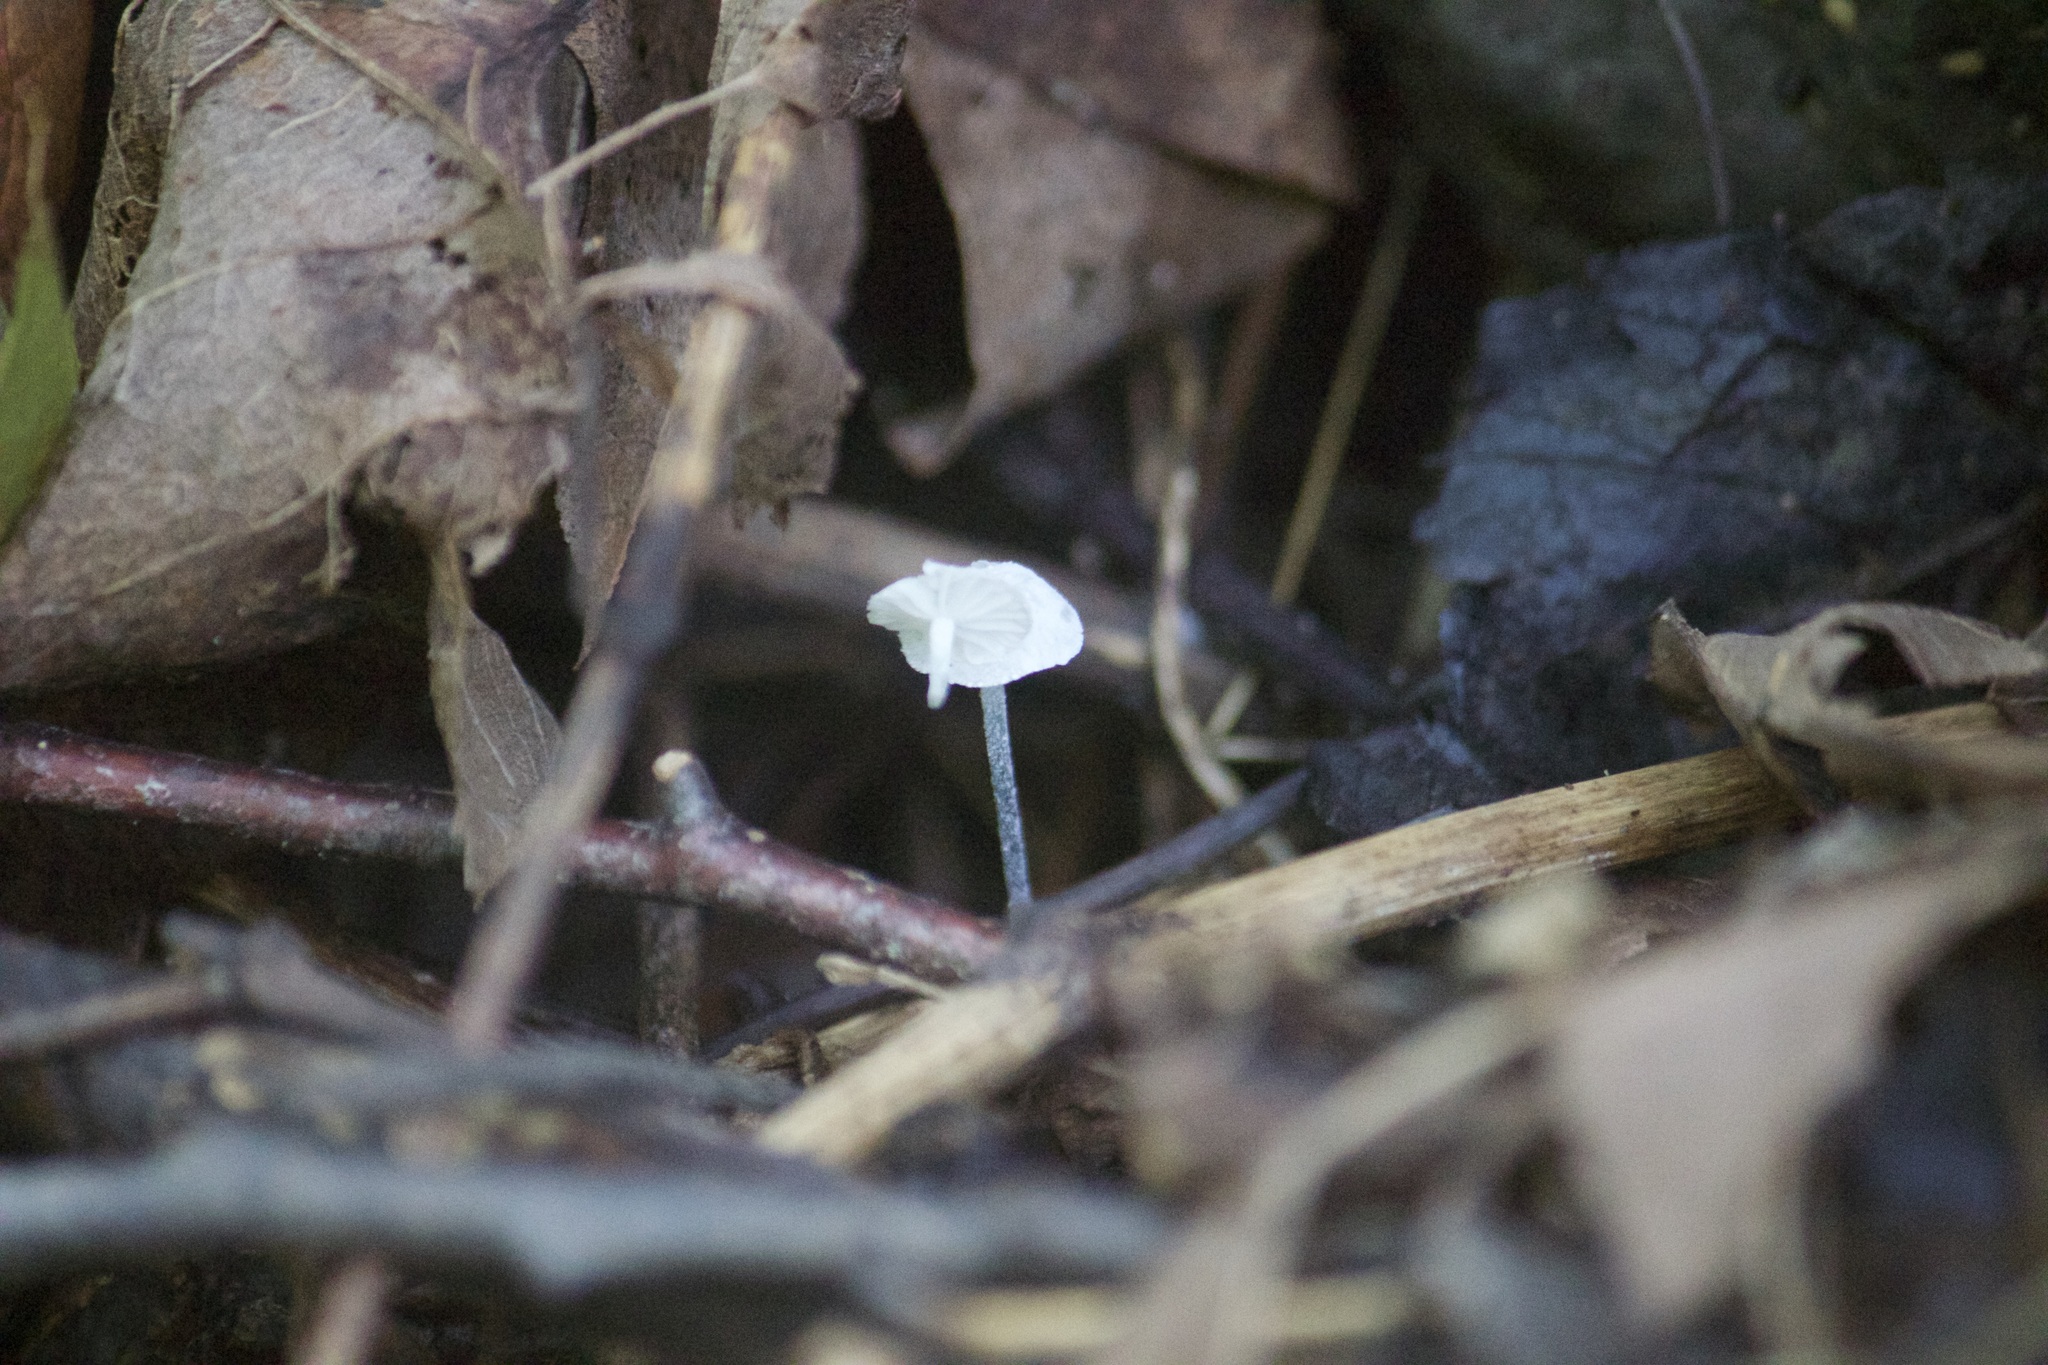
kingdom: Fungi
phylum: Basidiomycota
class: Agaricomycetes
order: Agaricales
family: Marasmiaceae
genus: Tetrapyrgos
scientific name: Tetrapyrgos nigripes
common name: Black-stalked marasmius
